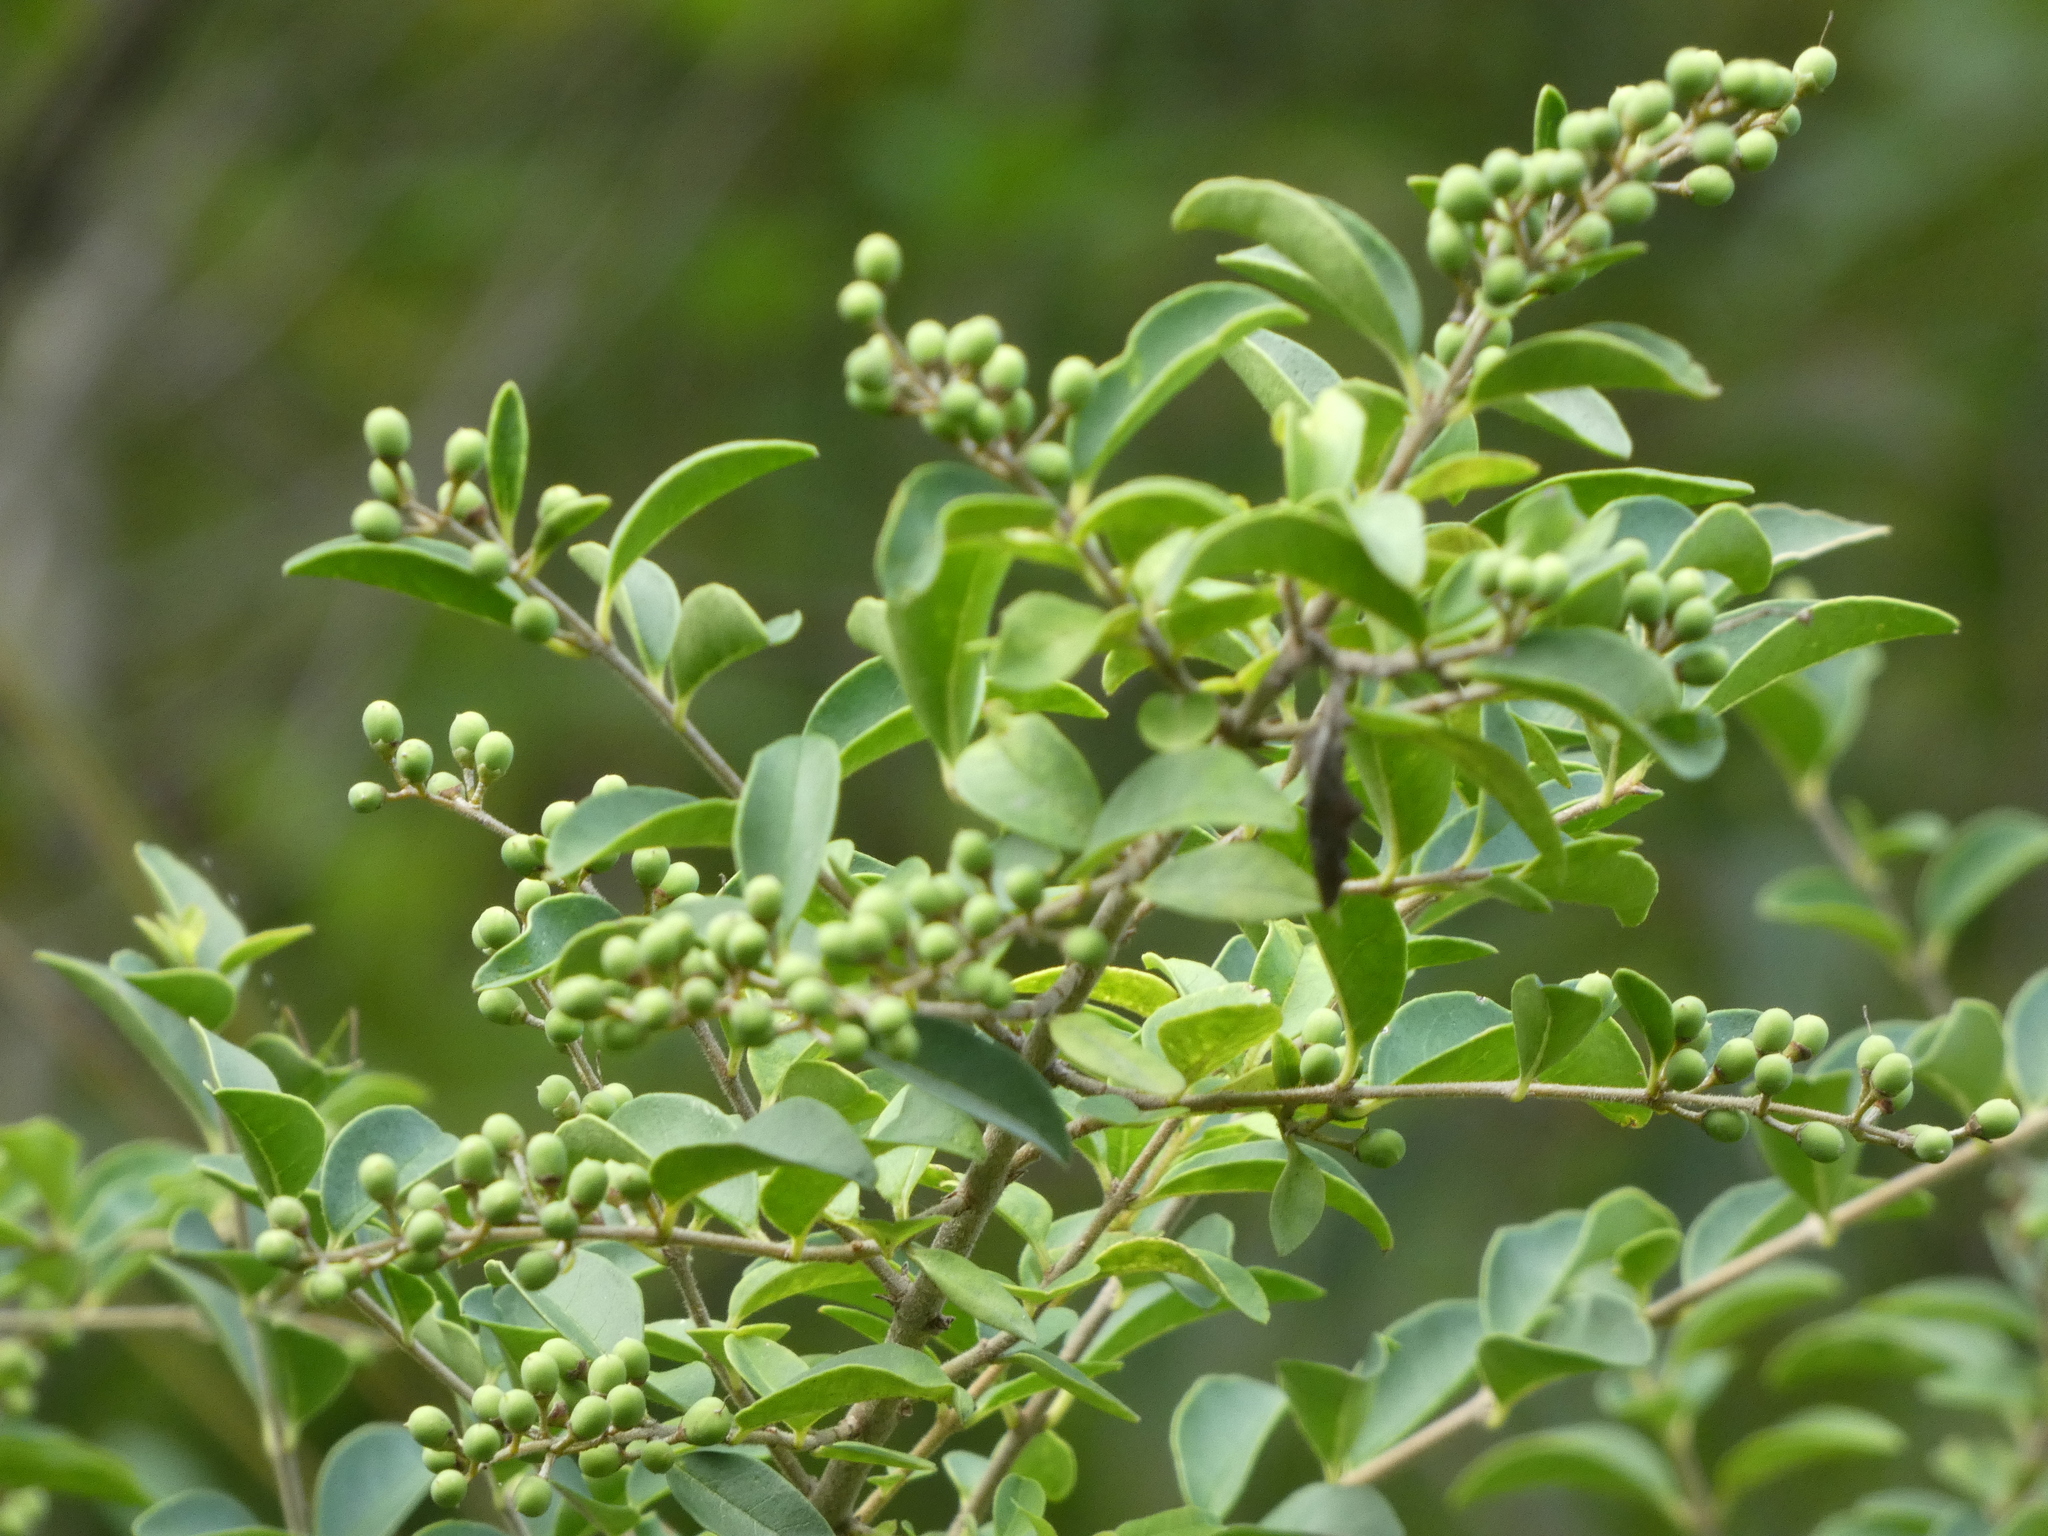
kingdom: Plantae
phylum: Tracheophyta
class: Magnoliopsida
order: Lamiales
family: Oleaceae
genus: Ligustrum
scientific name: Ligustrum sinense
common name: Chinese privet
